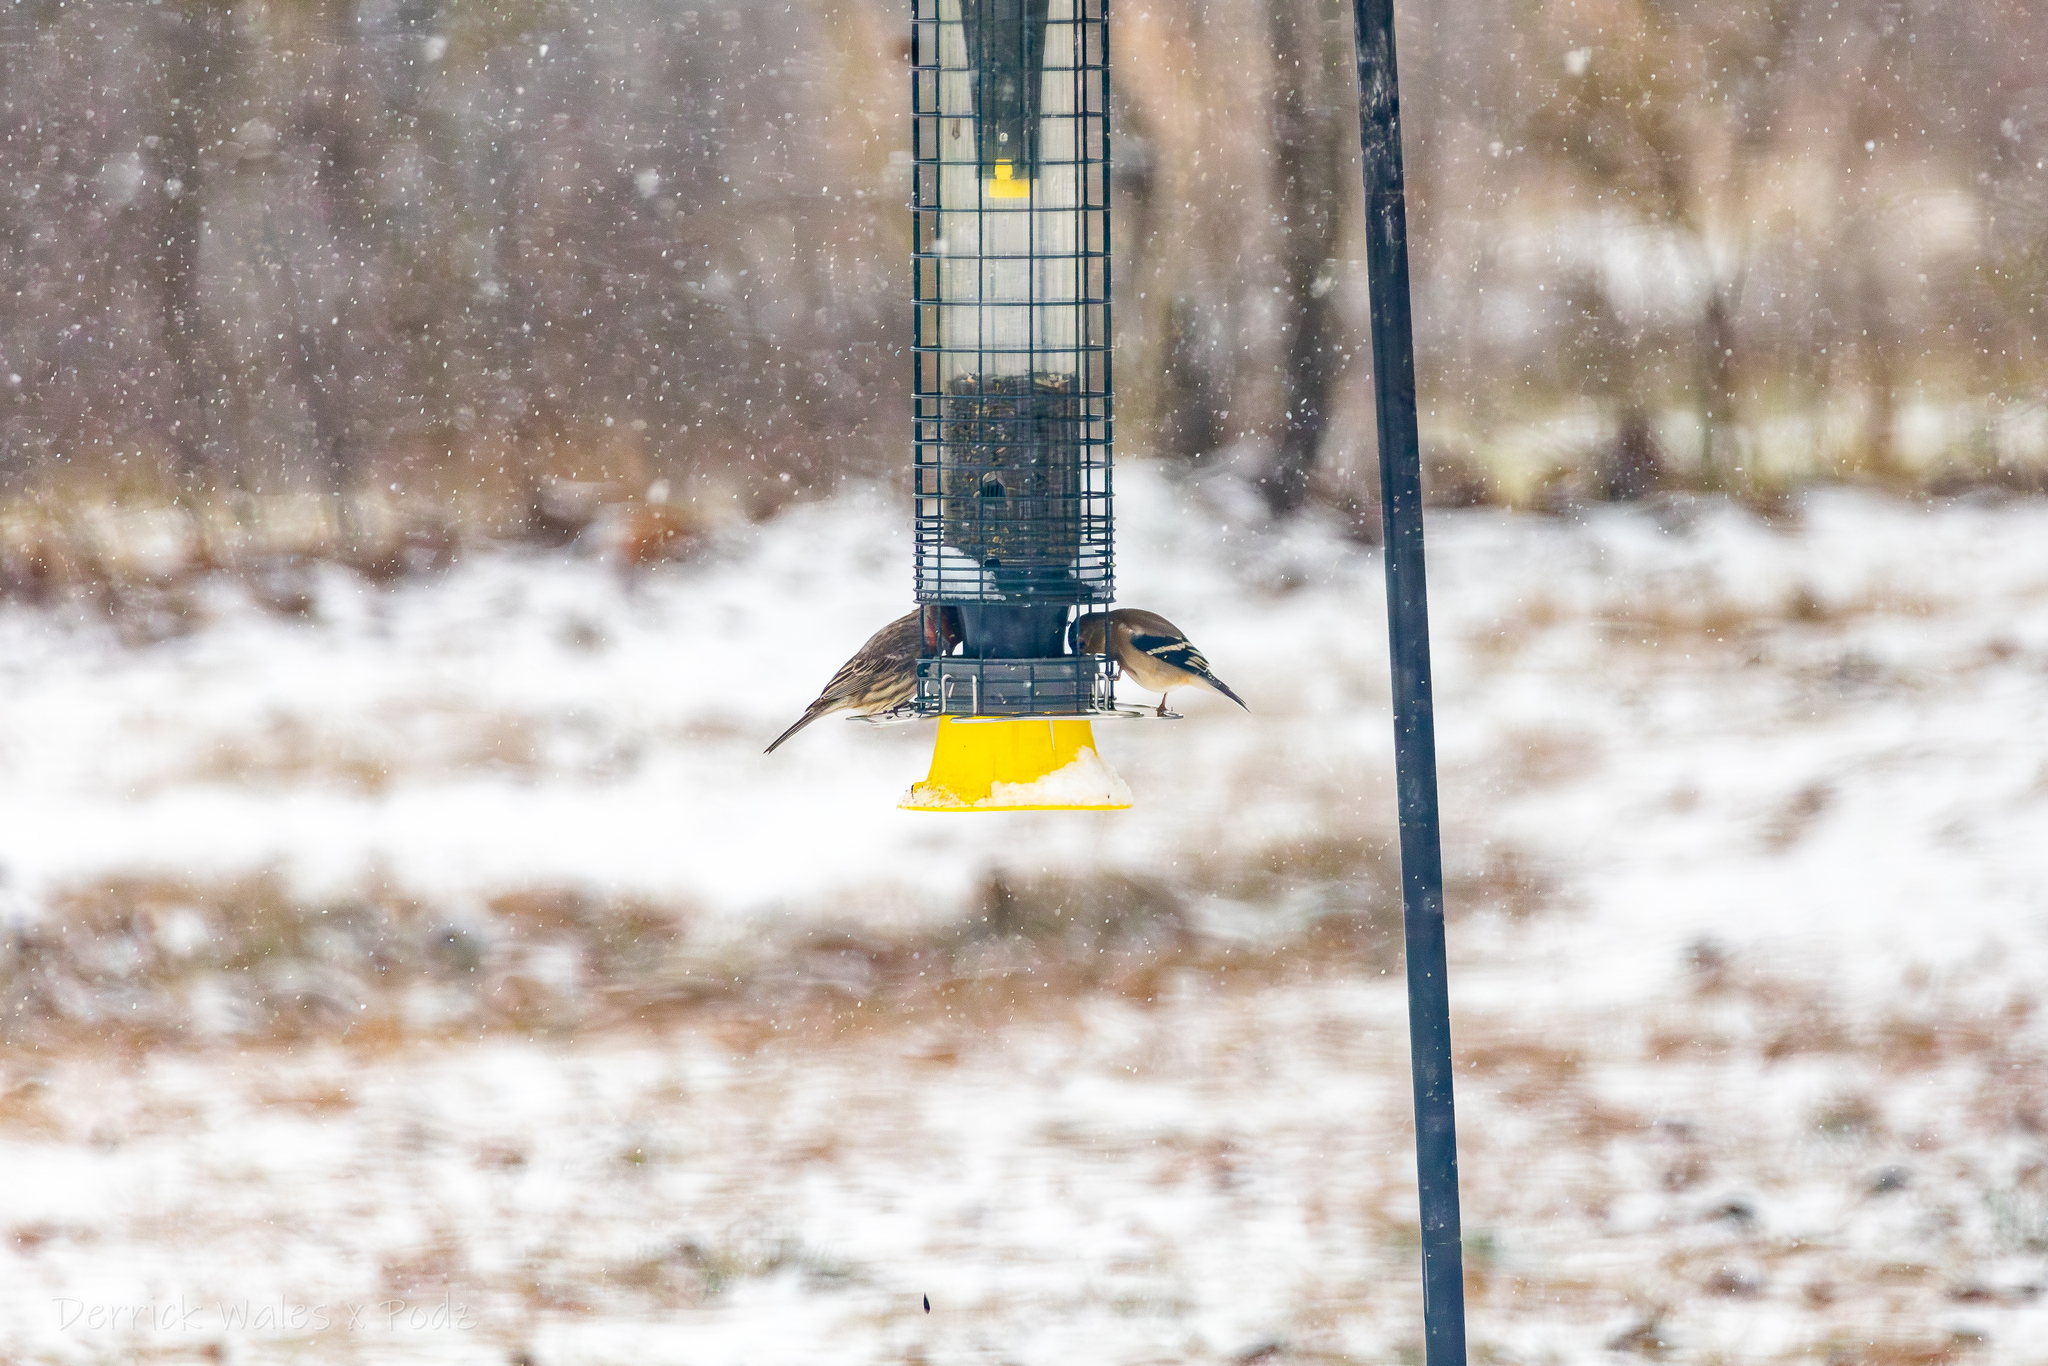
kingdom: Animalia
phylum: Chordata
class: Aves
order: Passeriformes
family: Fringillidae
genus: Spinus
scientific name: Spinus tristis
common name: American goldfinch
